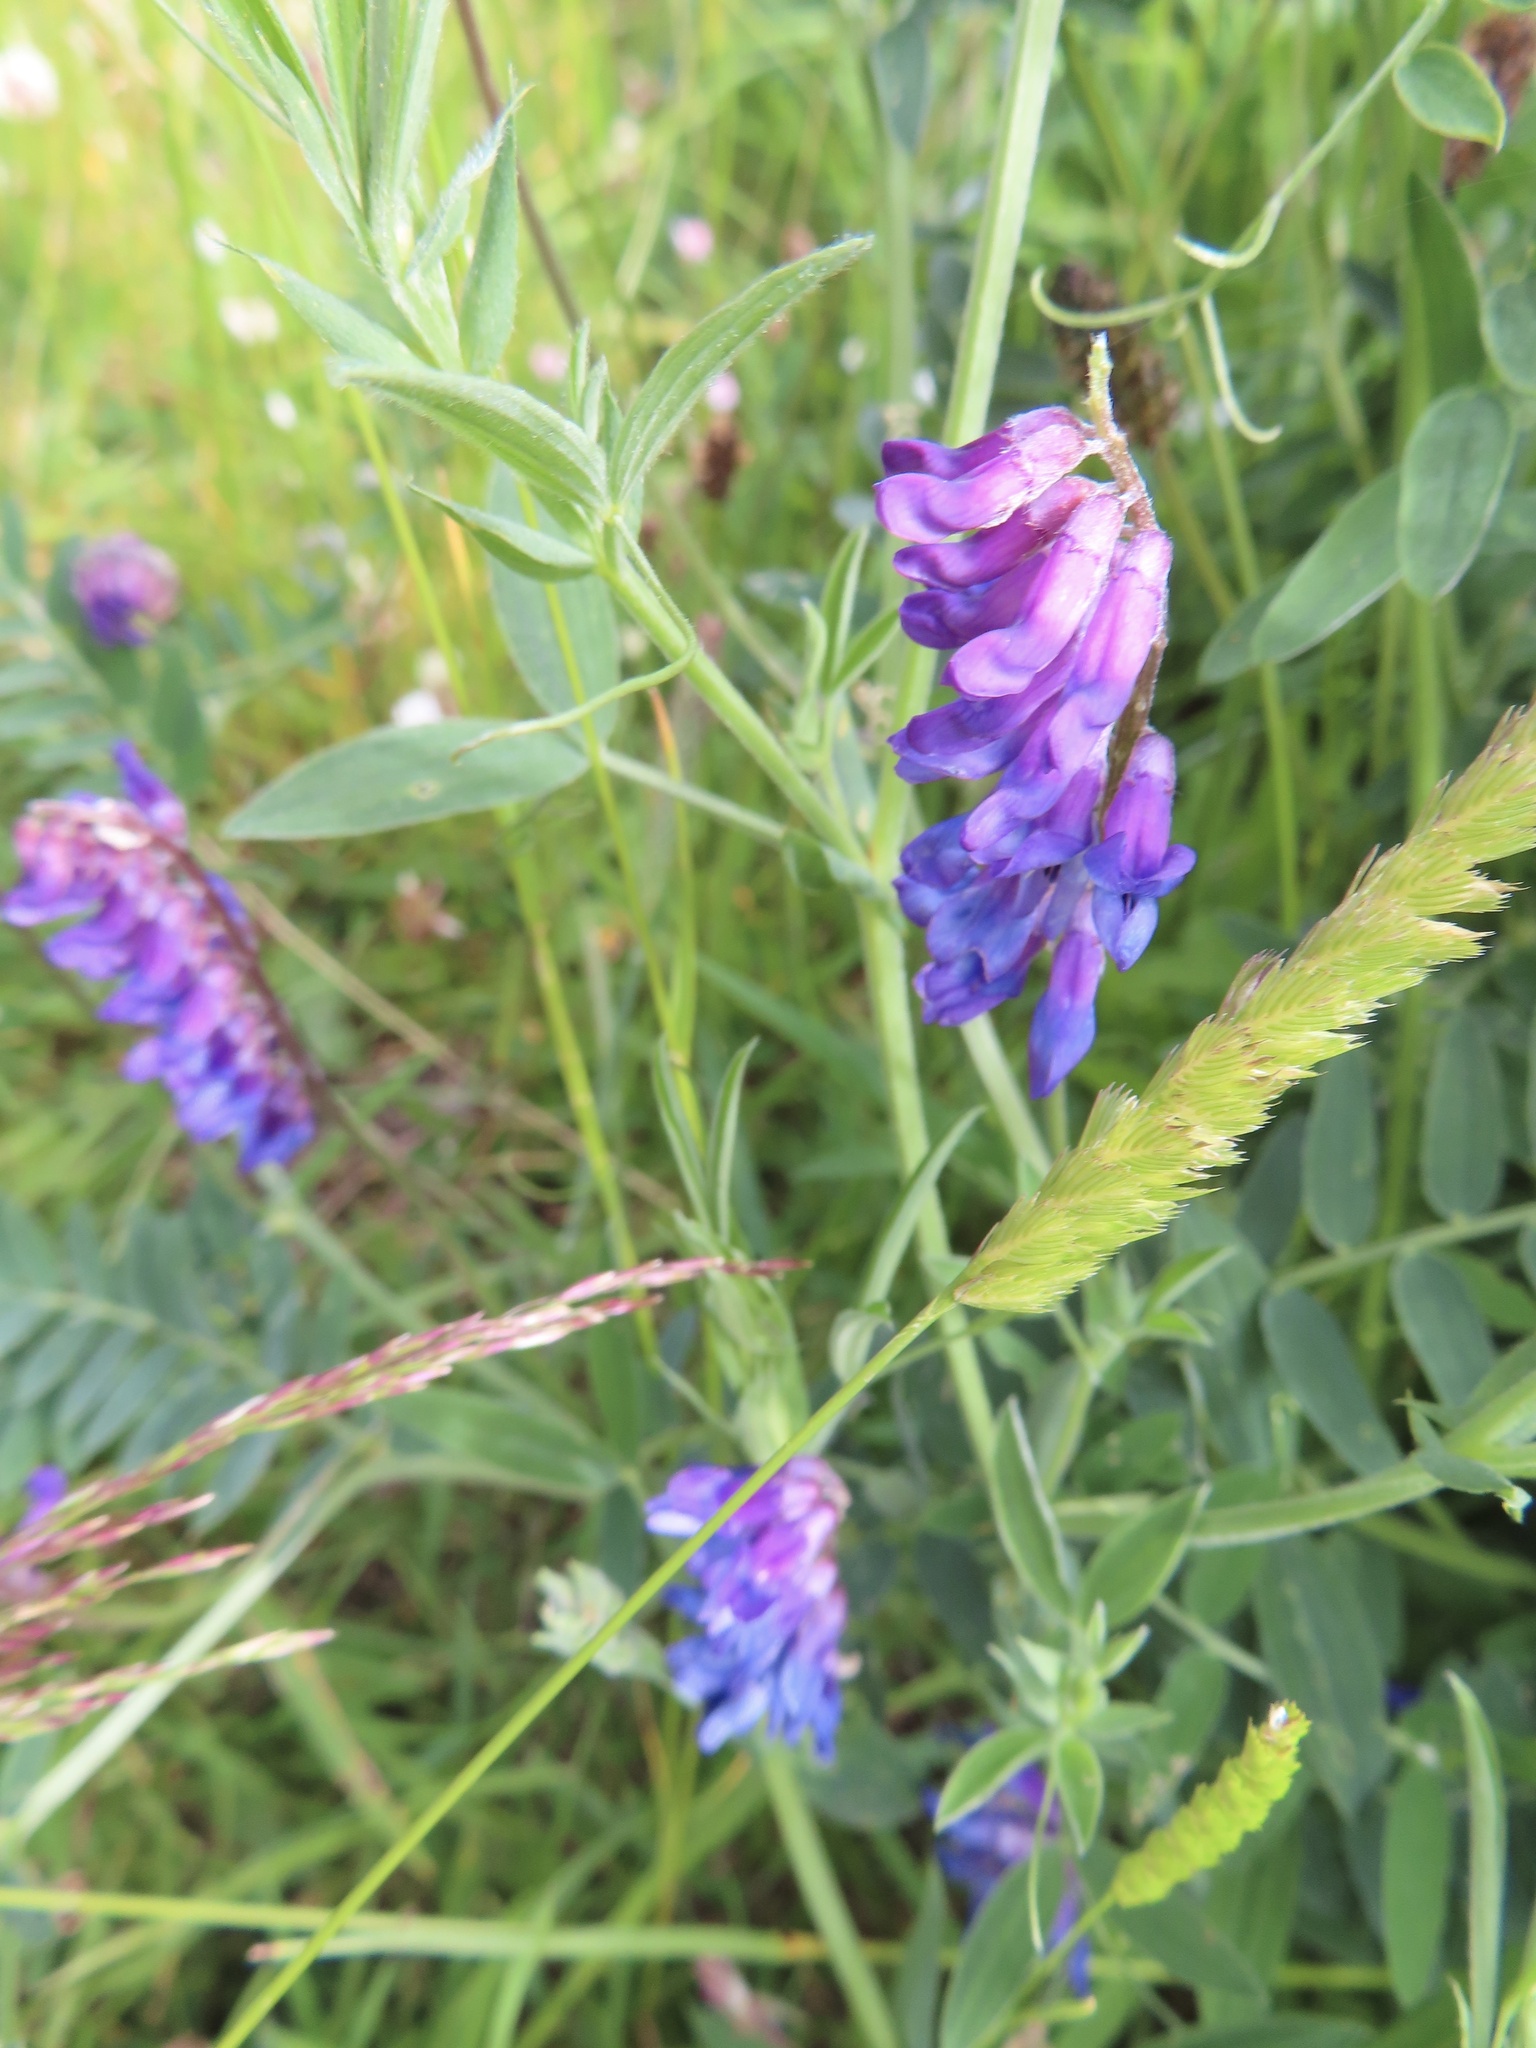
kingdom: Plantae
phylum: Tracheophyta
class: Magnoliopsida
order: Fabales
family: Fabaceae
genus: Vicia
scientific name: Vicia cracca
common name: Bird vetch
